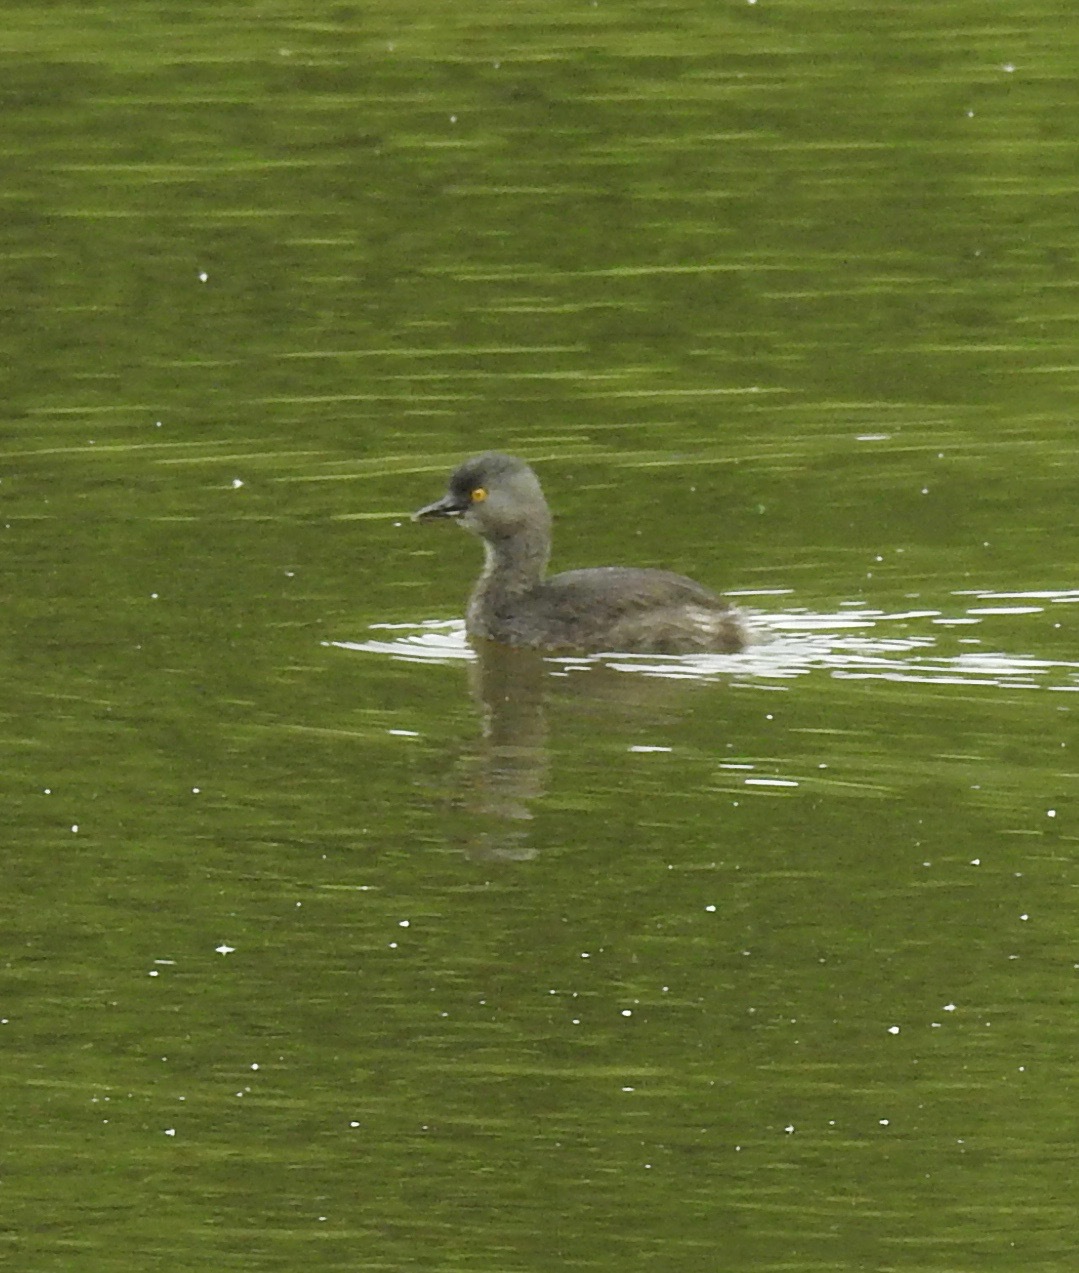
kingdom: Animalia
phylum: Chordata
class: Aves
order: Podicipediformes
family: Podicipedidae
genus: Tachybaptus
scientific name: Tachybaptus dominicus
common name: Least grebe
